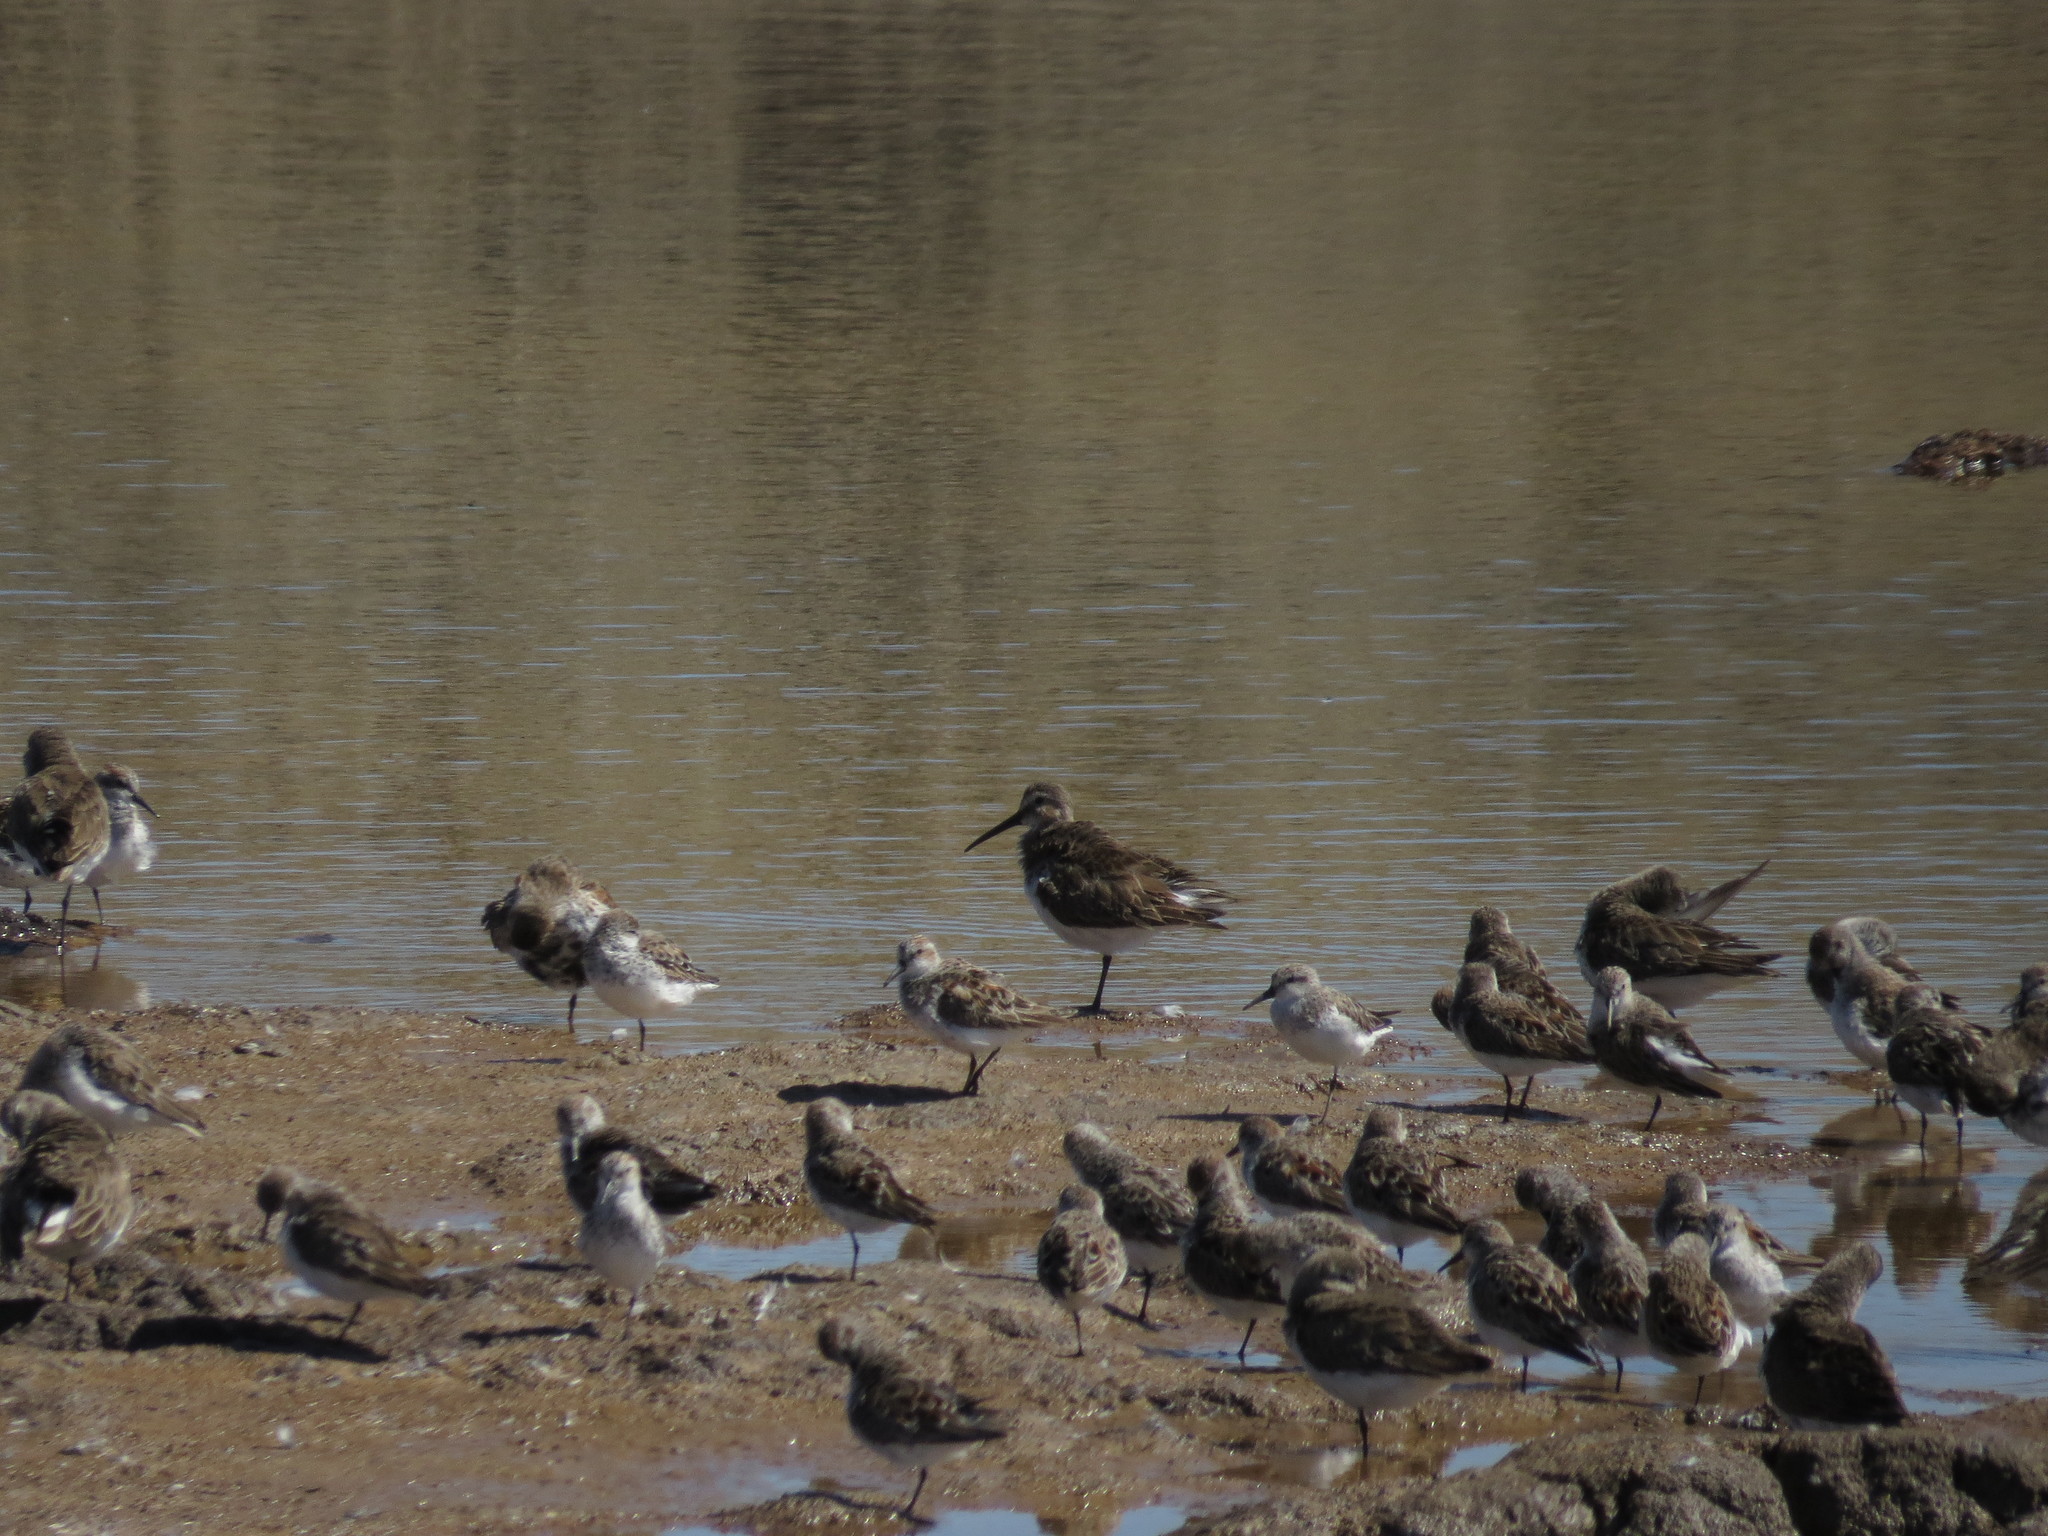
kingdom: Animalia
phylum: Chordata
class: Aves
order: Charadriiformes
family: Scolopacidae
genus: Calidris
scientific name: Calidris alpina
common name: Dunlin
